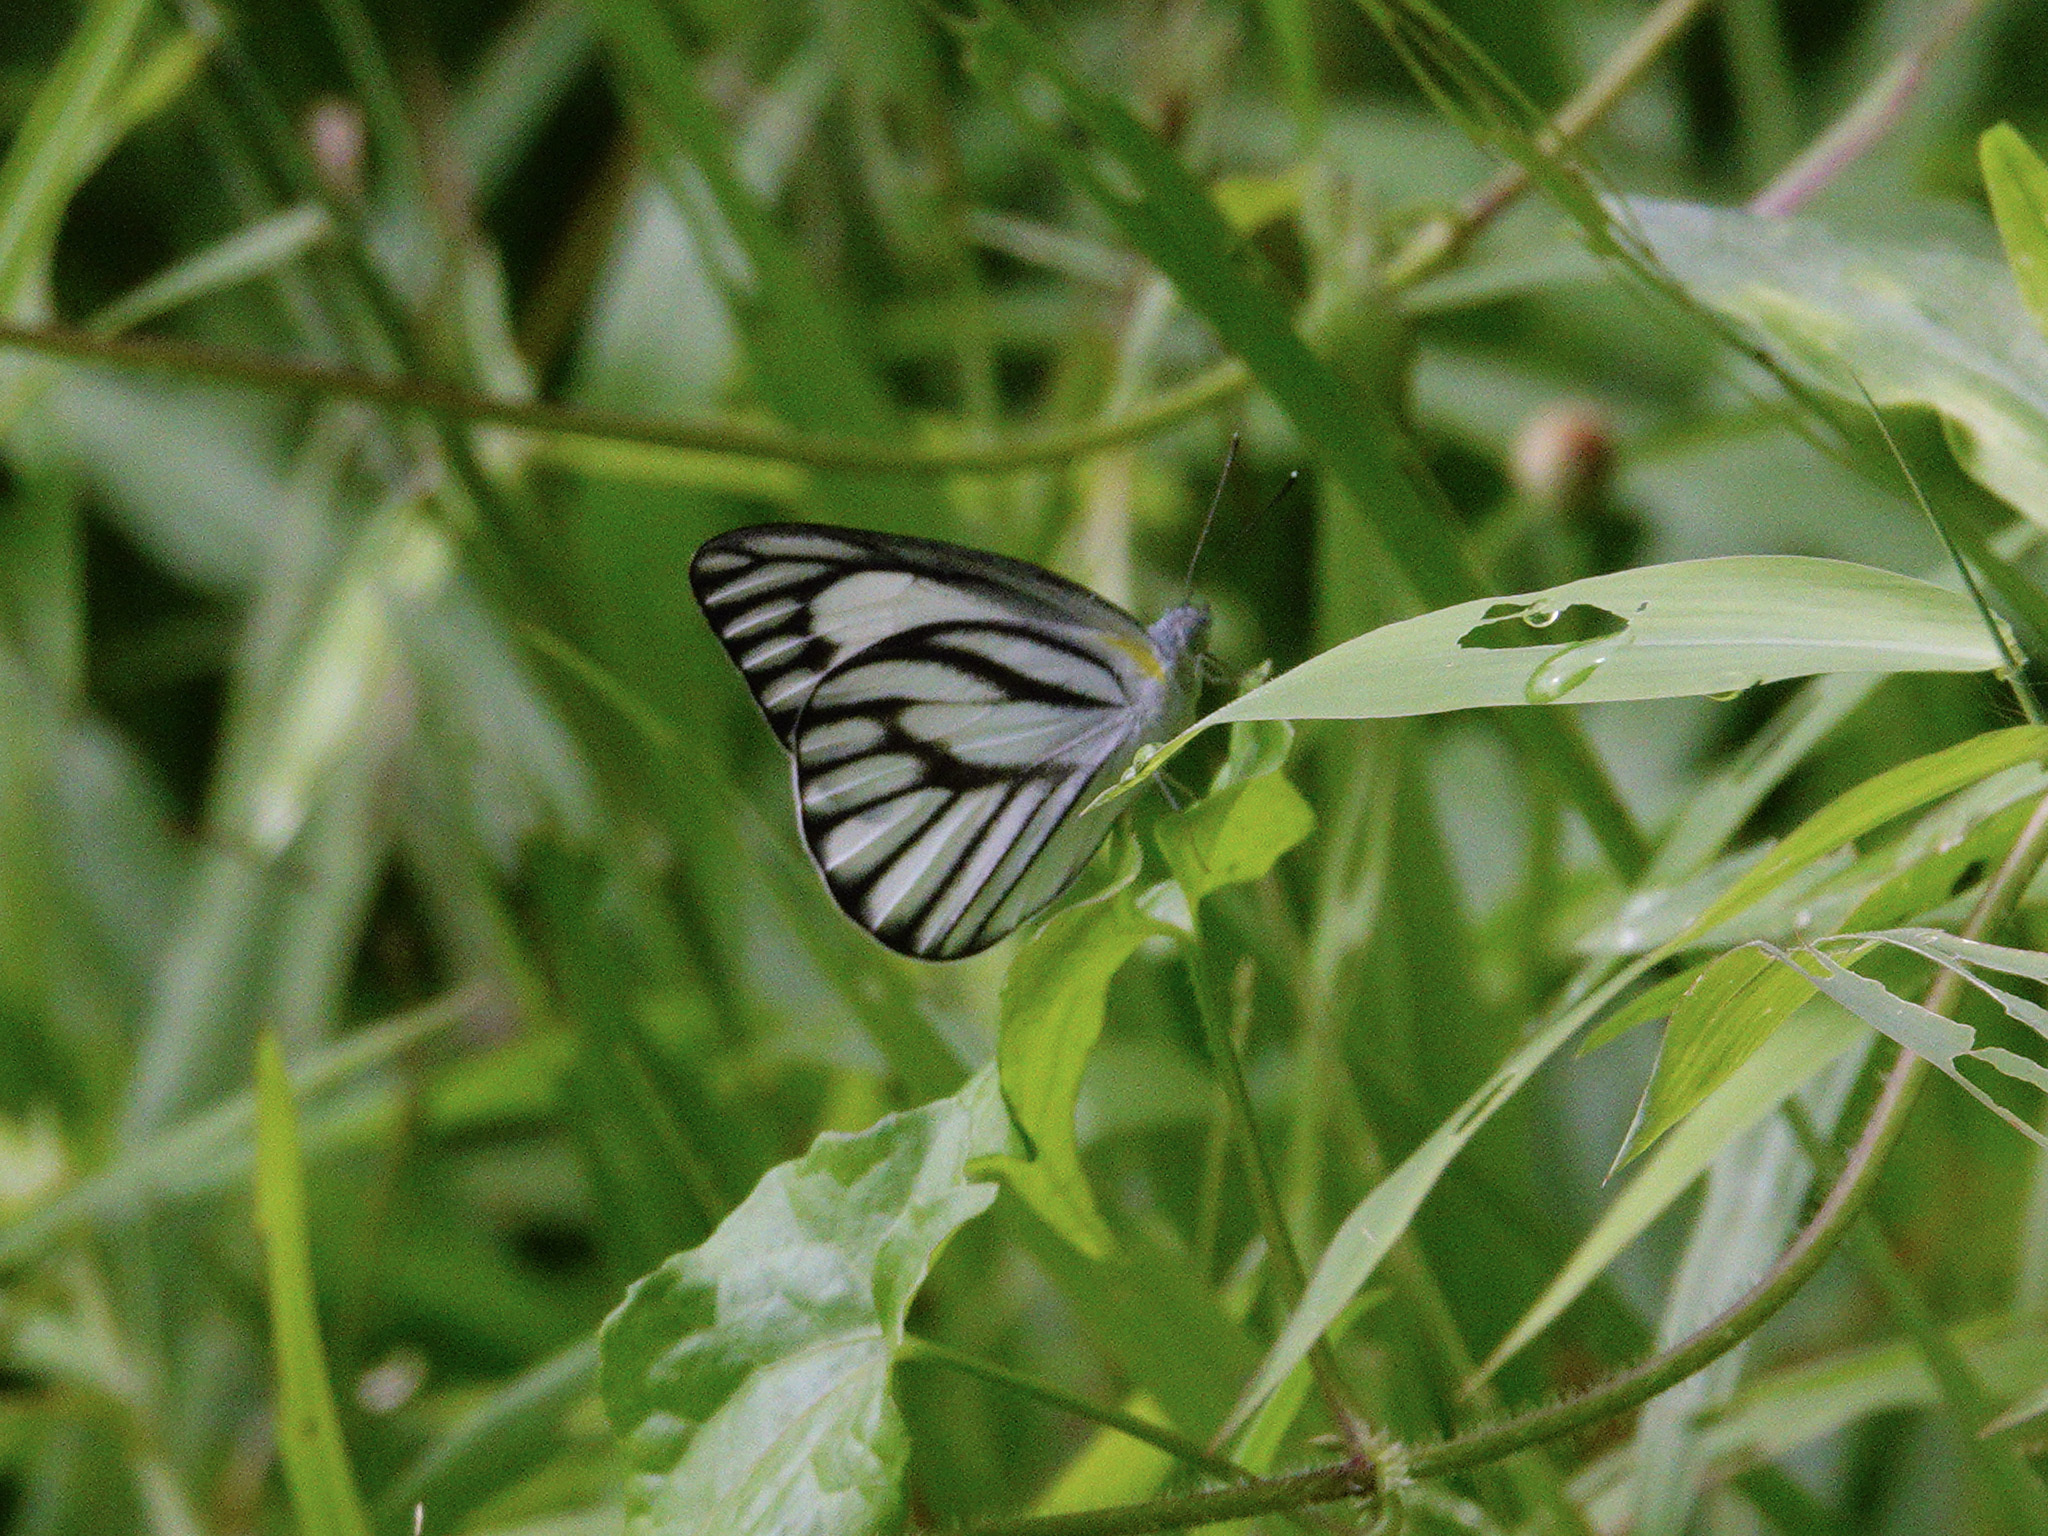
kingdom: Animalia
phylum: Arthropoda
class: Insecta
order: Lepidoptera
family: Pieridae
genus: Appias
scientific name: Appias libythea
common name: Striped albatross
